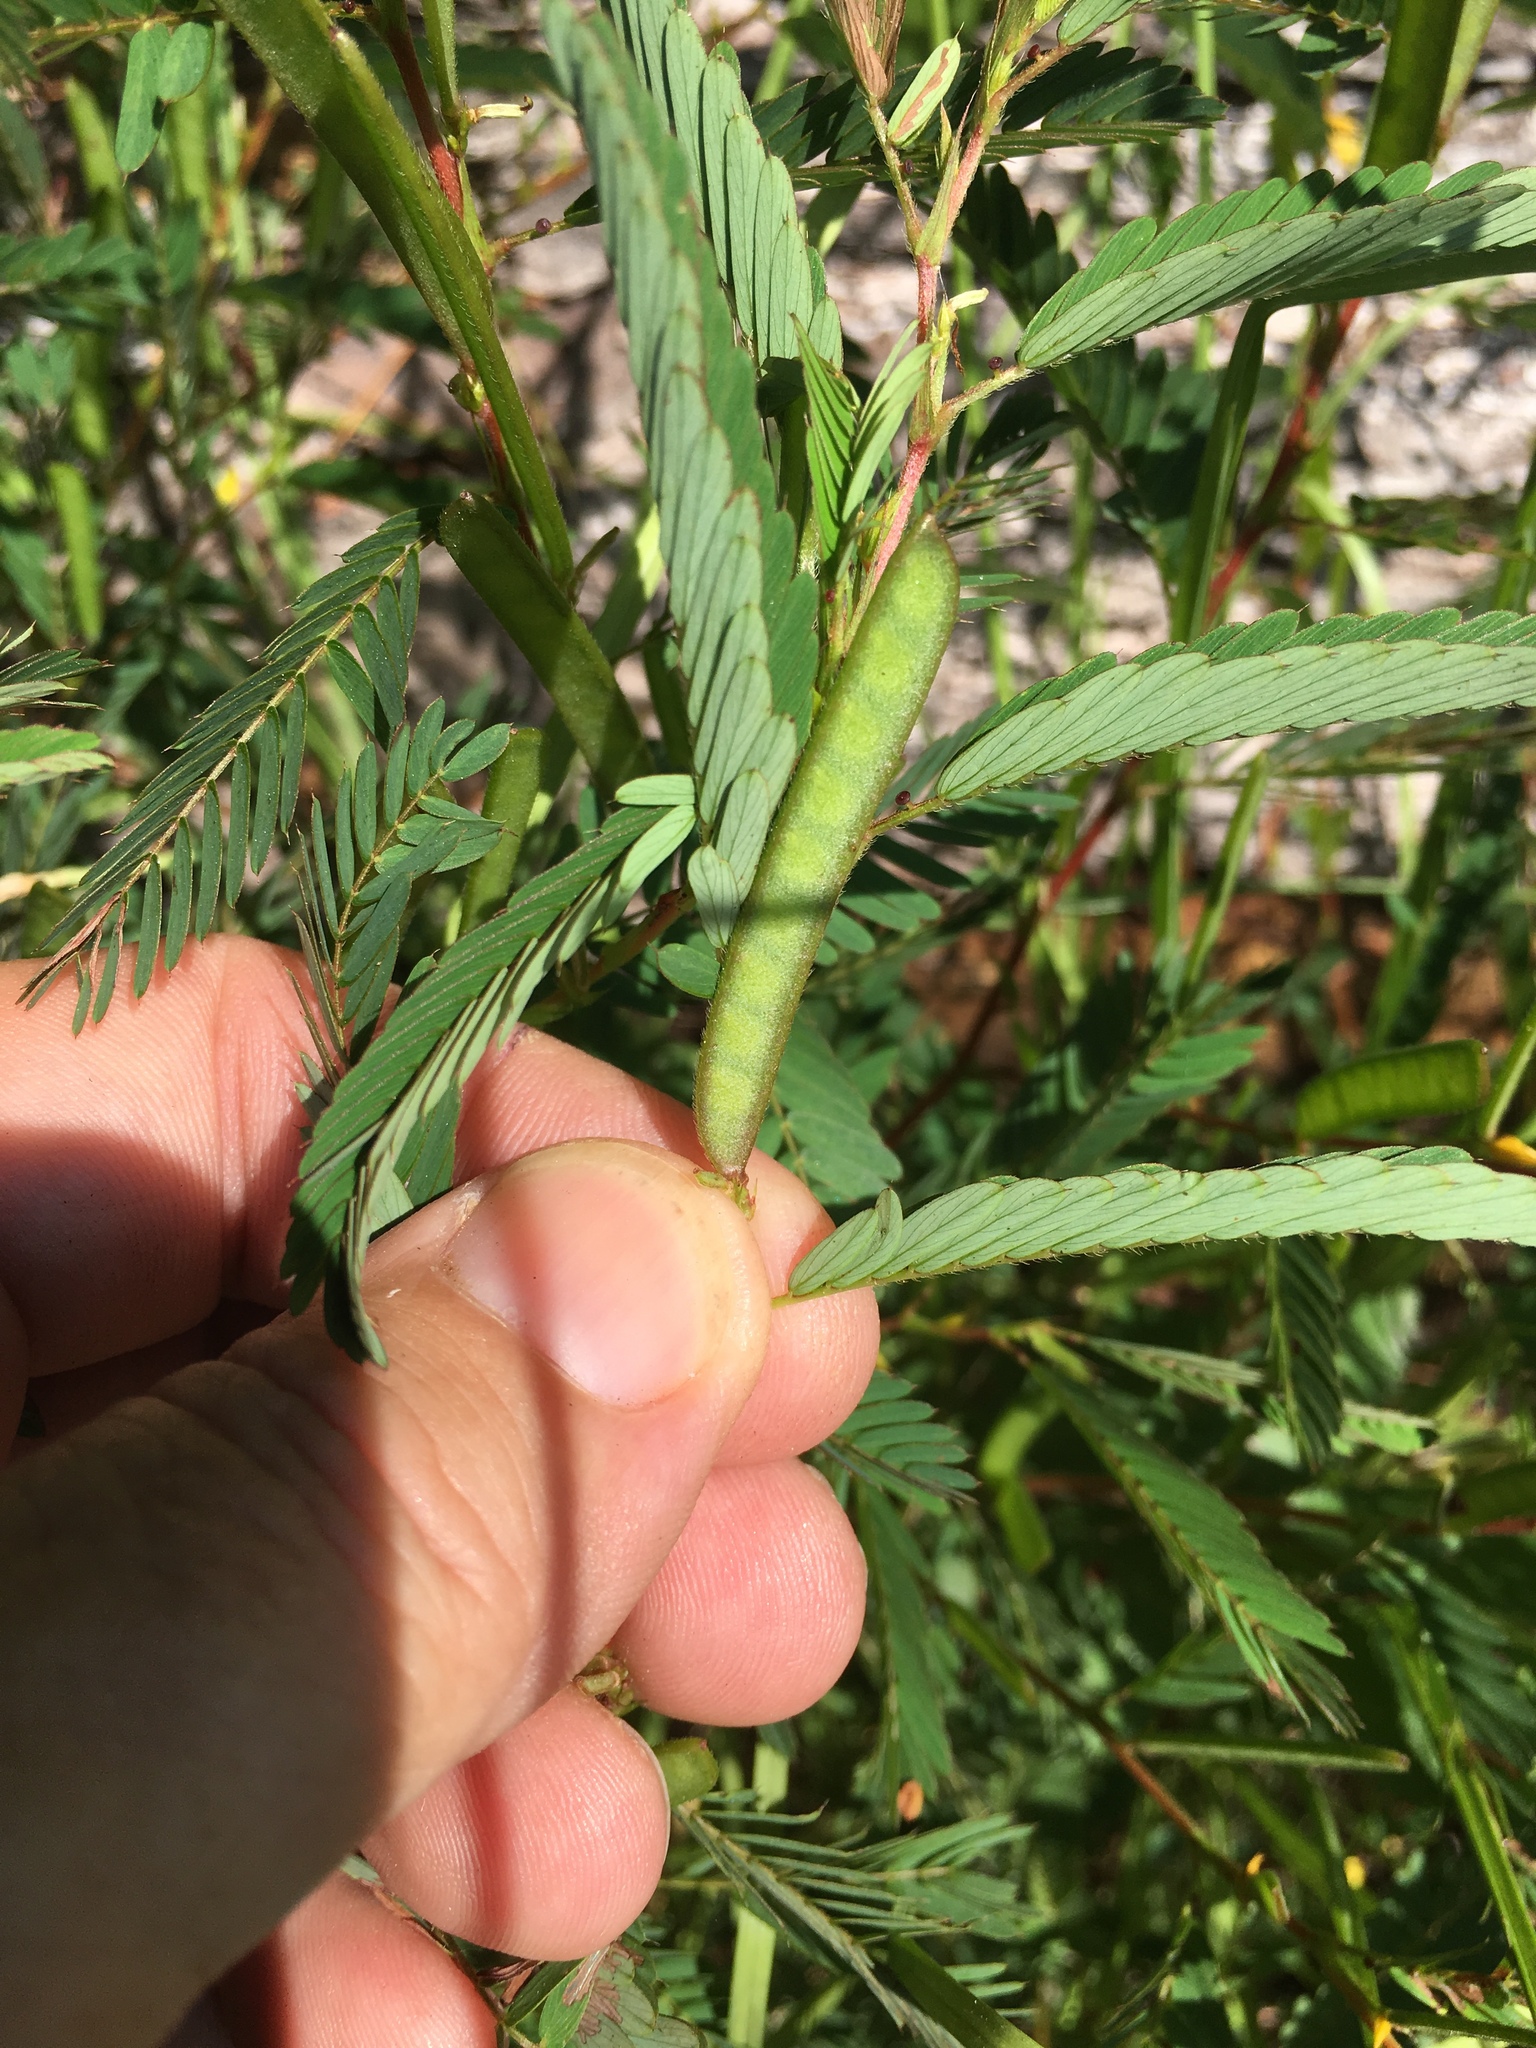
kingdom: Plantae
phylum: Tracheophyta
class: Magnoliopsida
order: Fabales
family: Fabaceae
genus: Chamaecrista
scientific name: Chamaecrista nictitans
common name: Sensitive cassia
